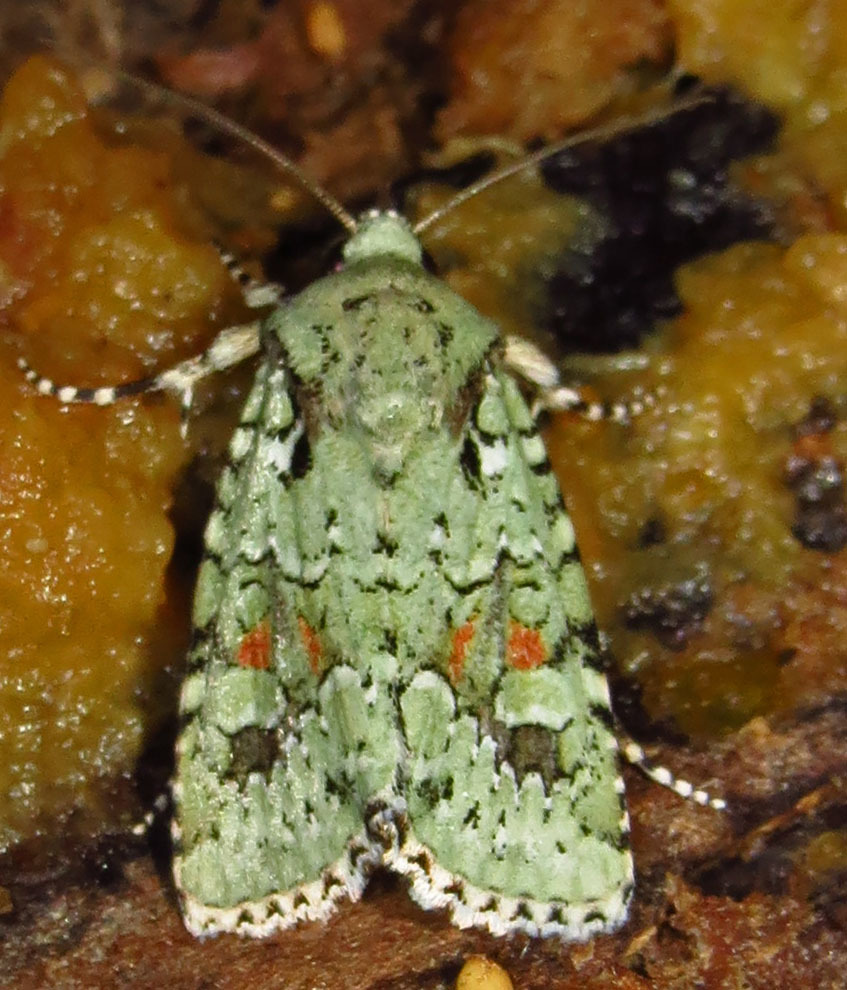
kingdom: Animalia
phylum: Arthropoda
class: Insecta
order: Lepidoptera
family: Noctuidae
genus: Lacinipolia
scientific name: Lacinipolia laudabilis
